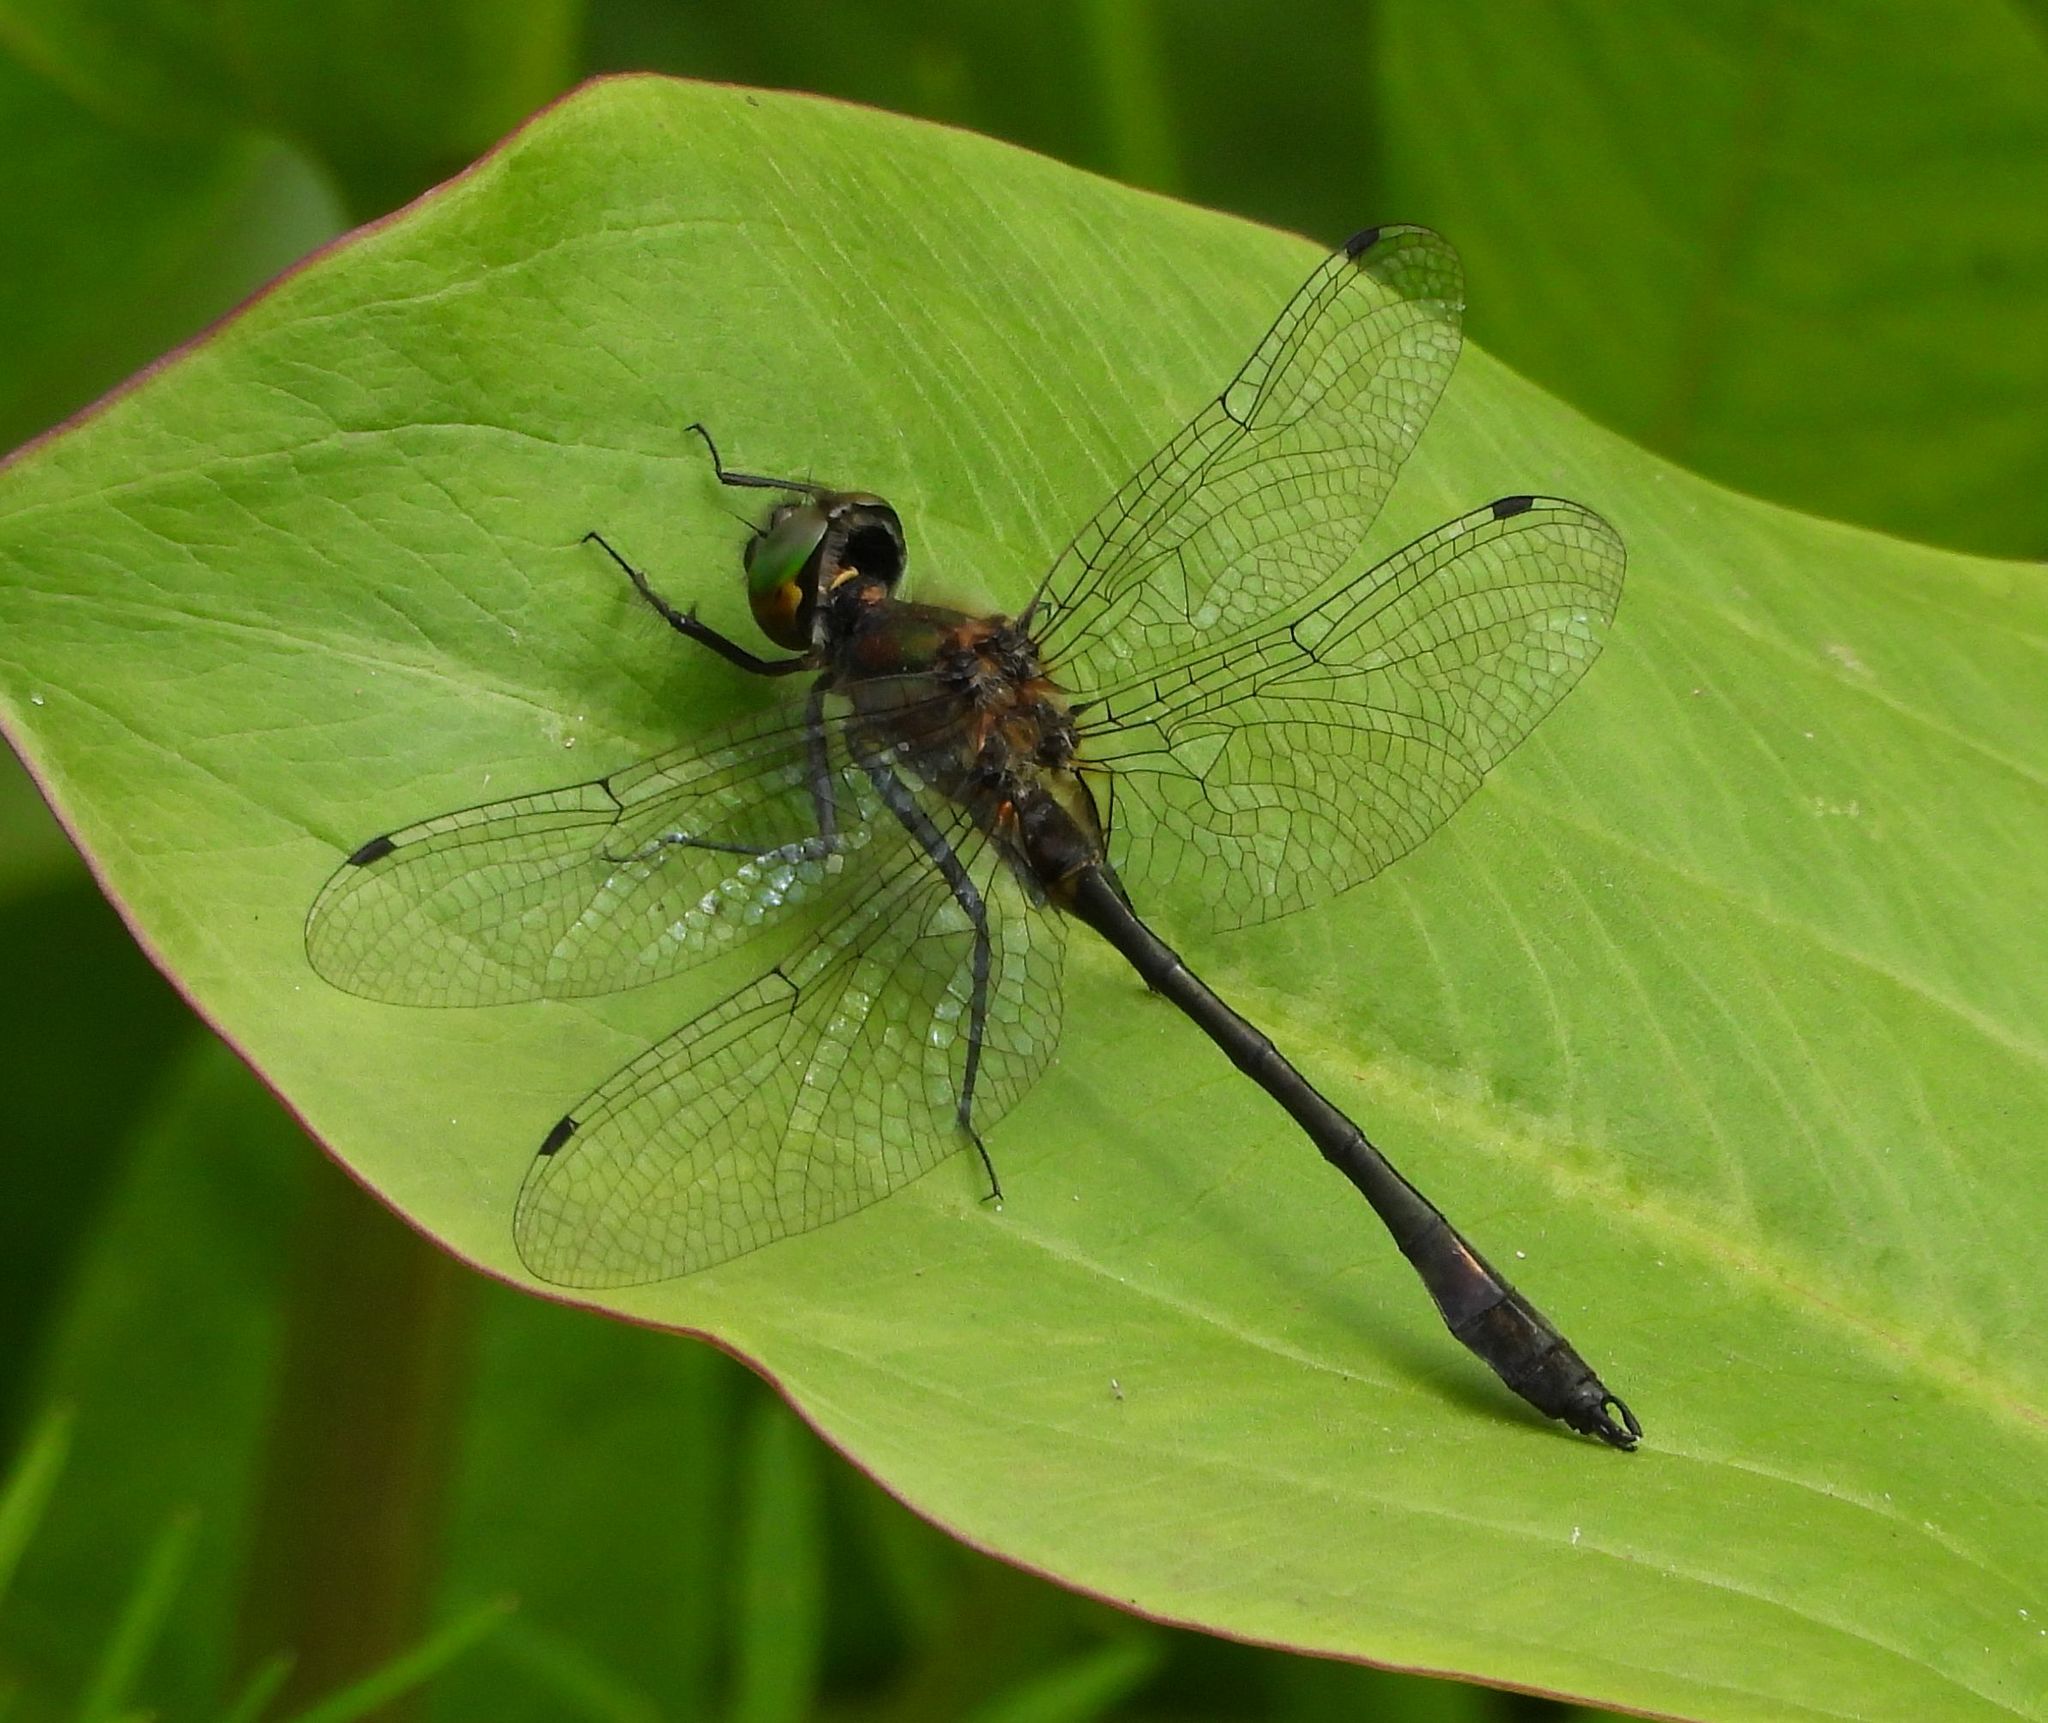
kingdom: Animalia
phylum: Arthropoda
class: Insecta
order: Odonata
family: Corduliidae
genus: Dorocordulia
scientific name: Dorocordulia libera
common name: Racket-tailed emerald
